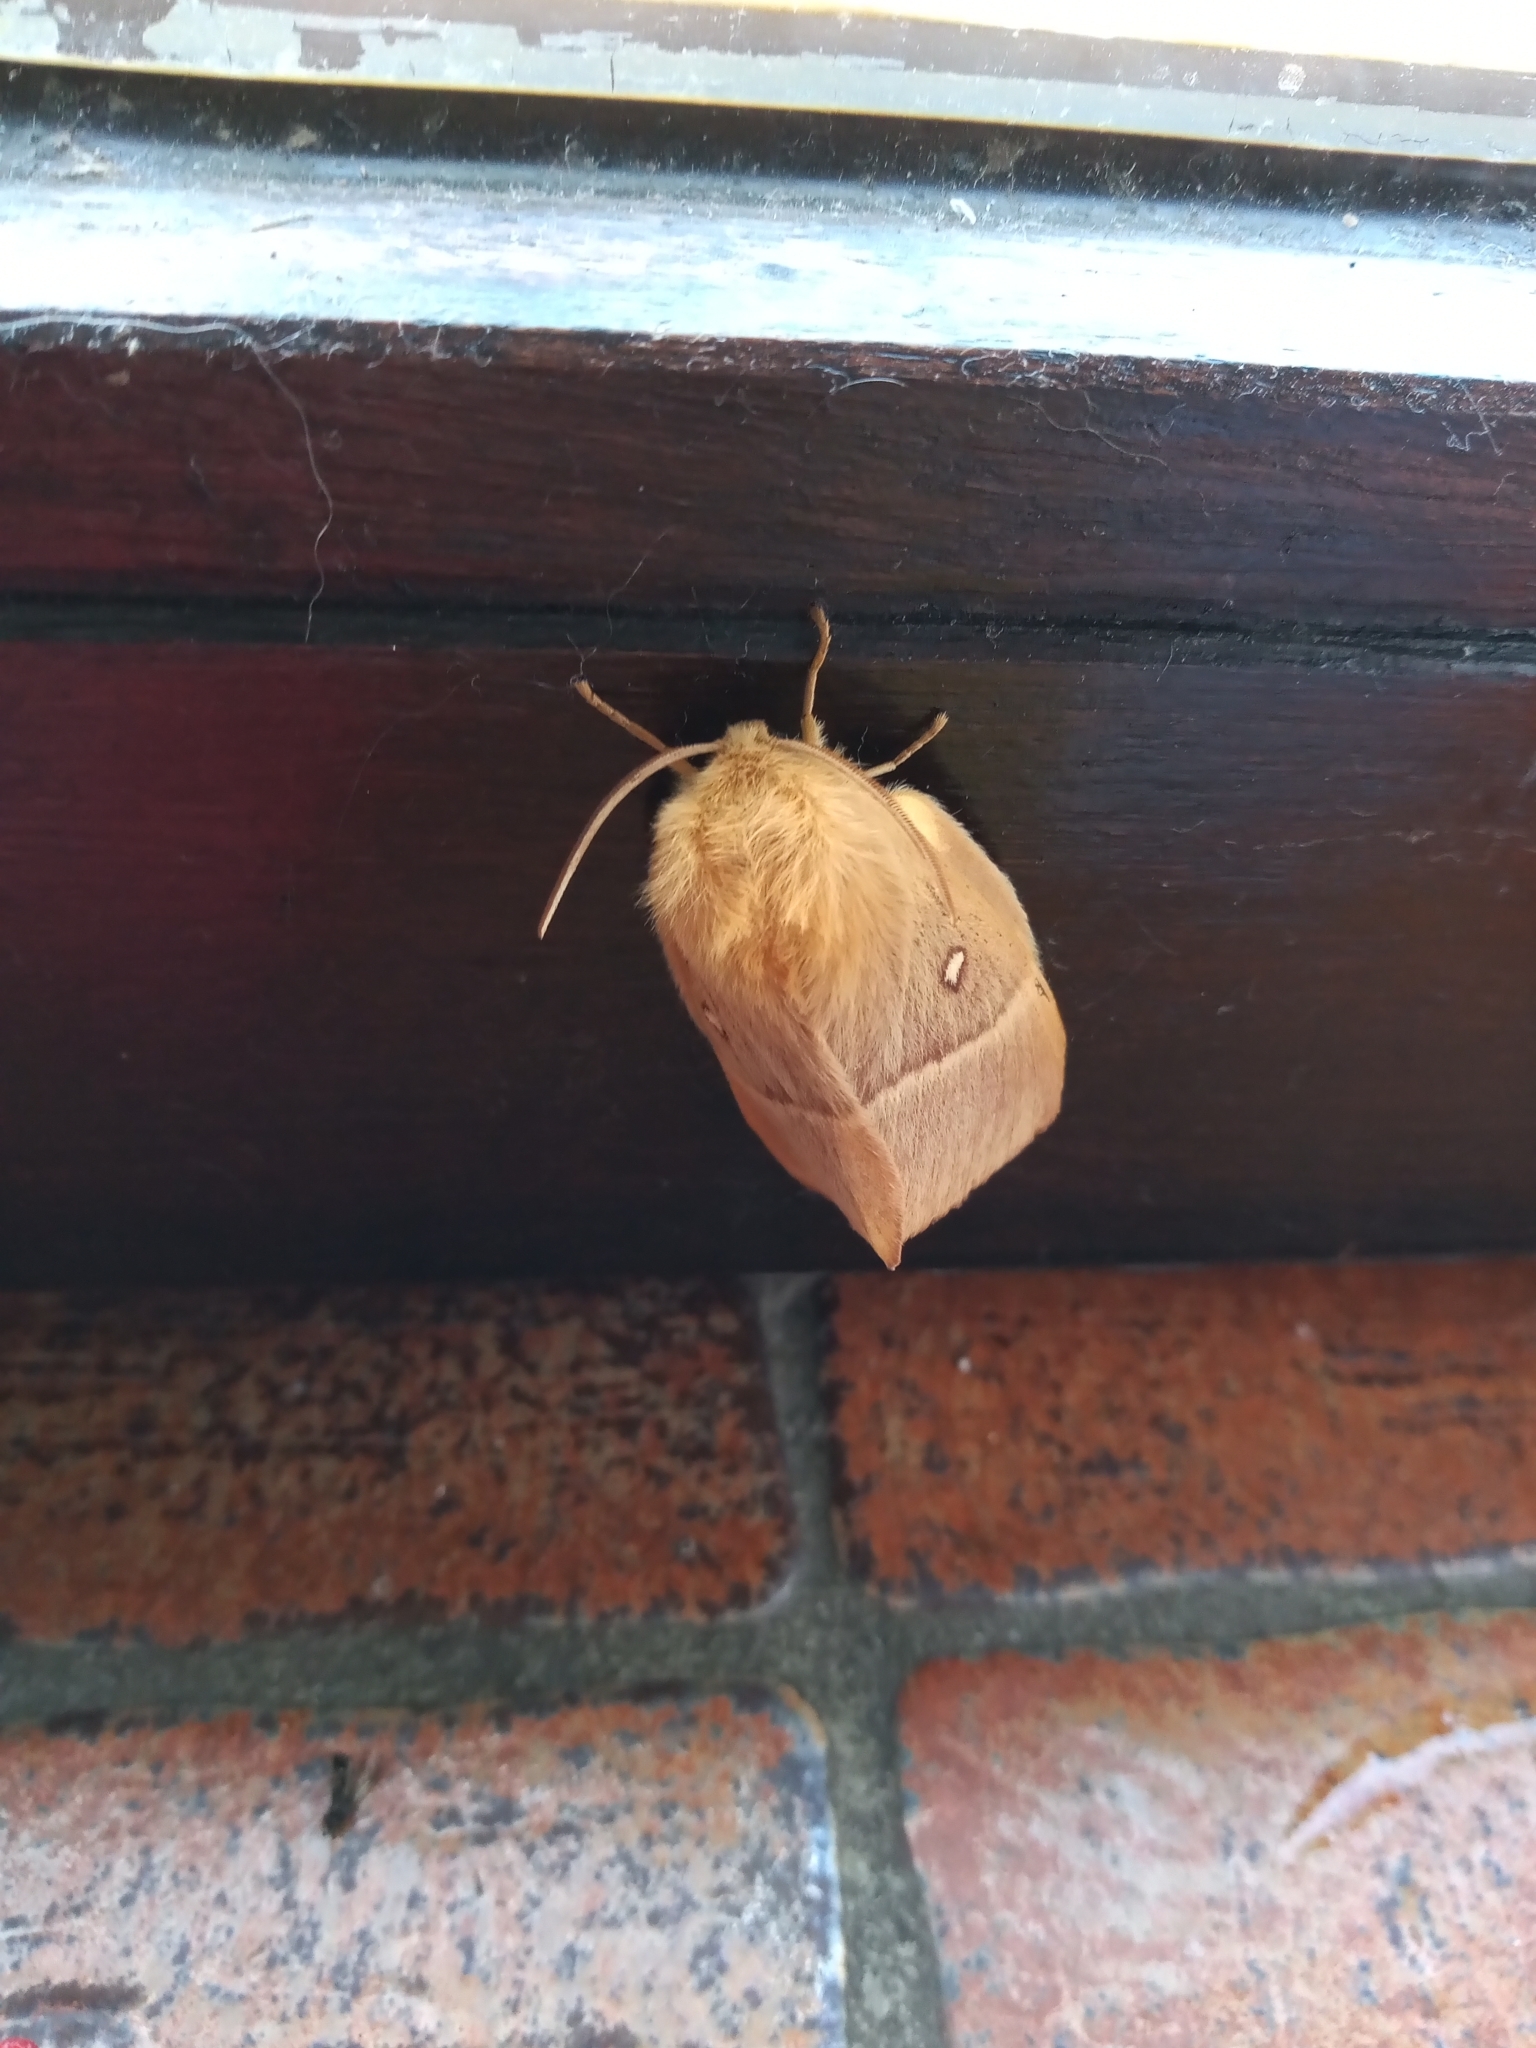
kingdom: Animalia
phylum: Arthropoda
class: Insecta
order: Lepidoptera
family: Lasiocampidae
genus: Lasiocampa
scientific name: Lasiocampa quercus
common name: Oak eggar
